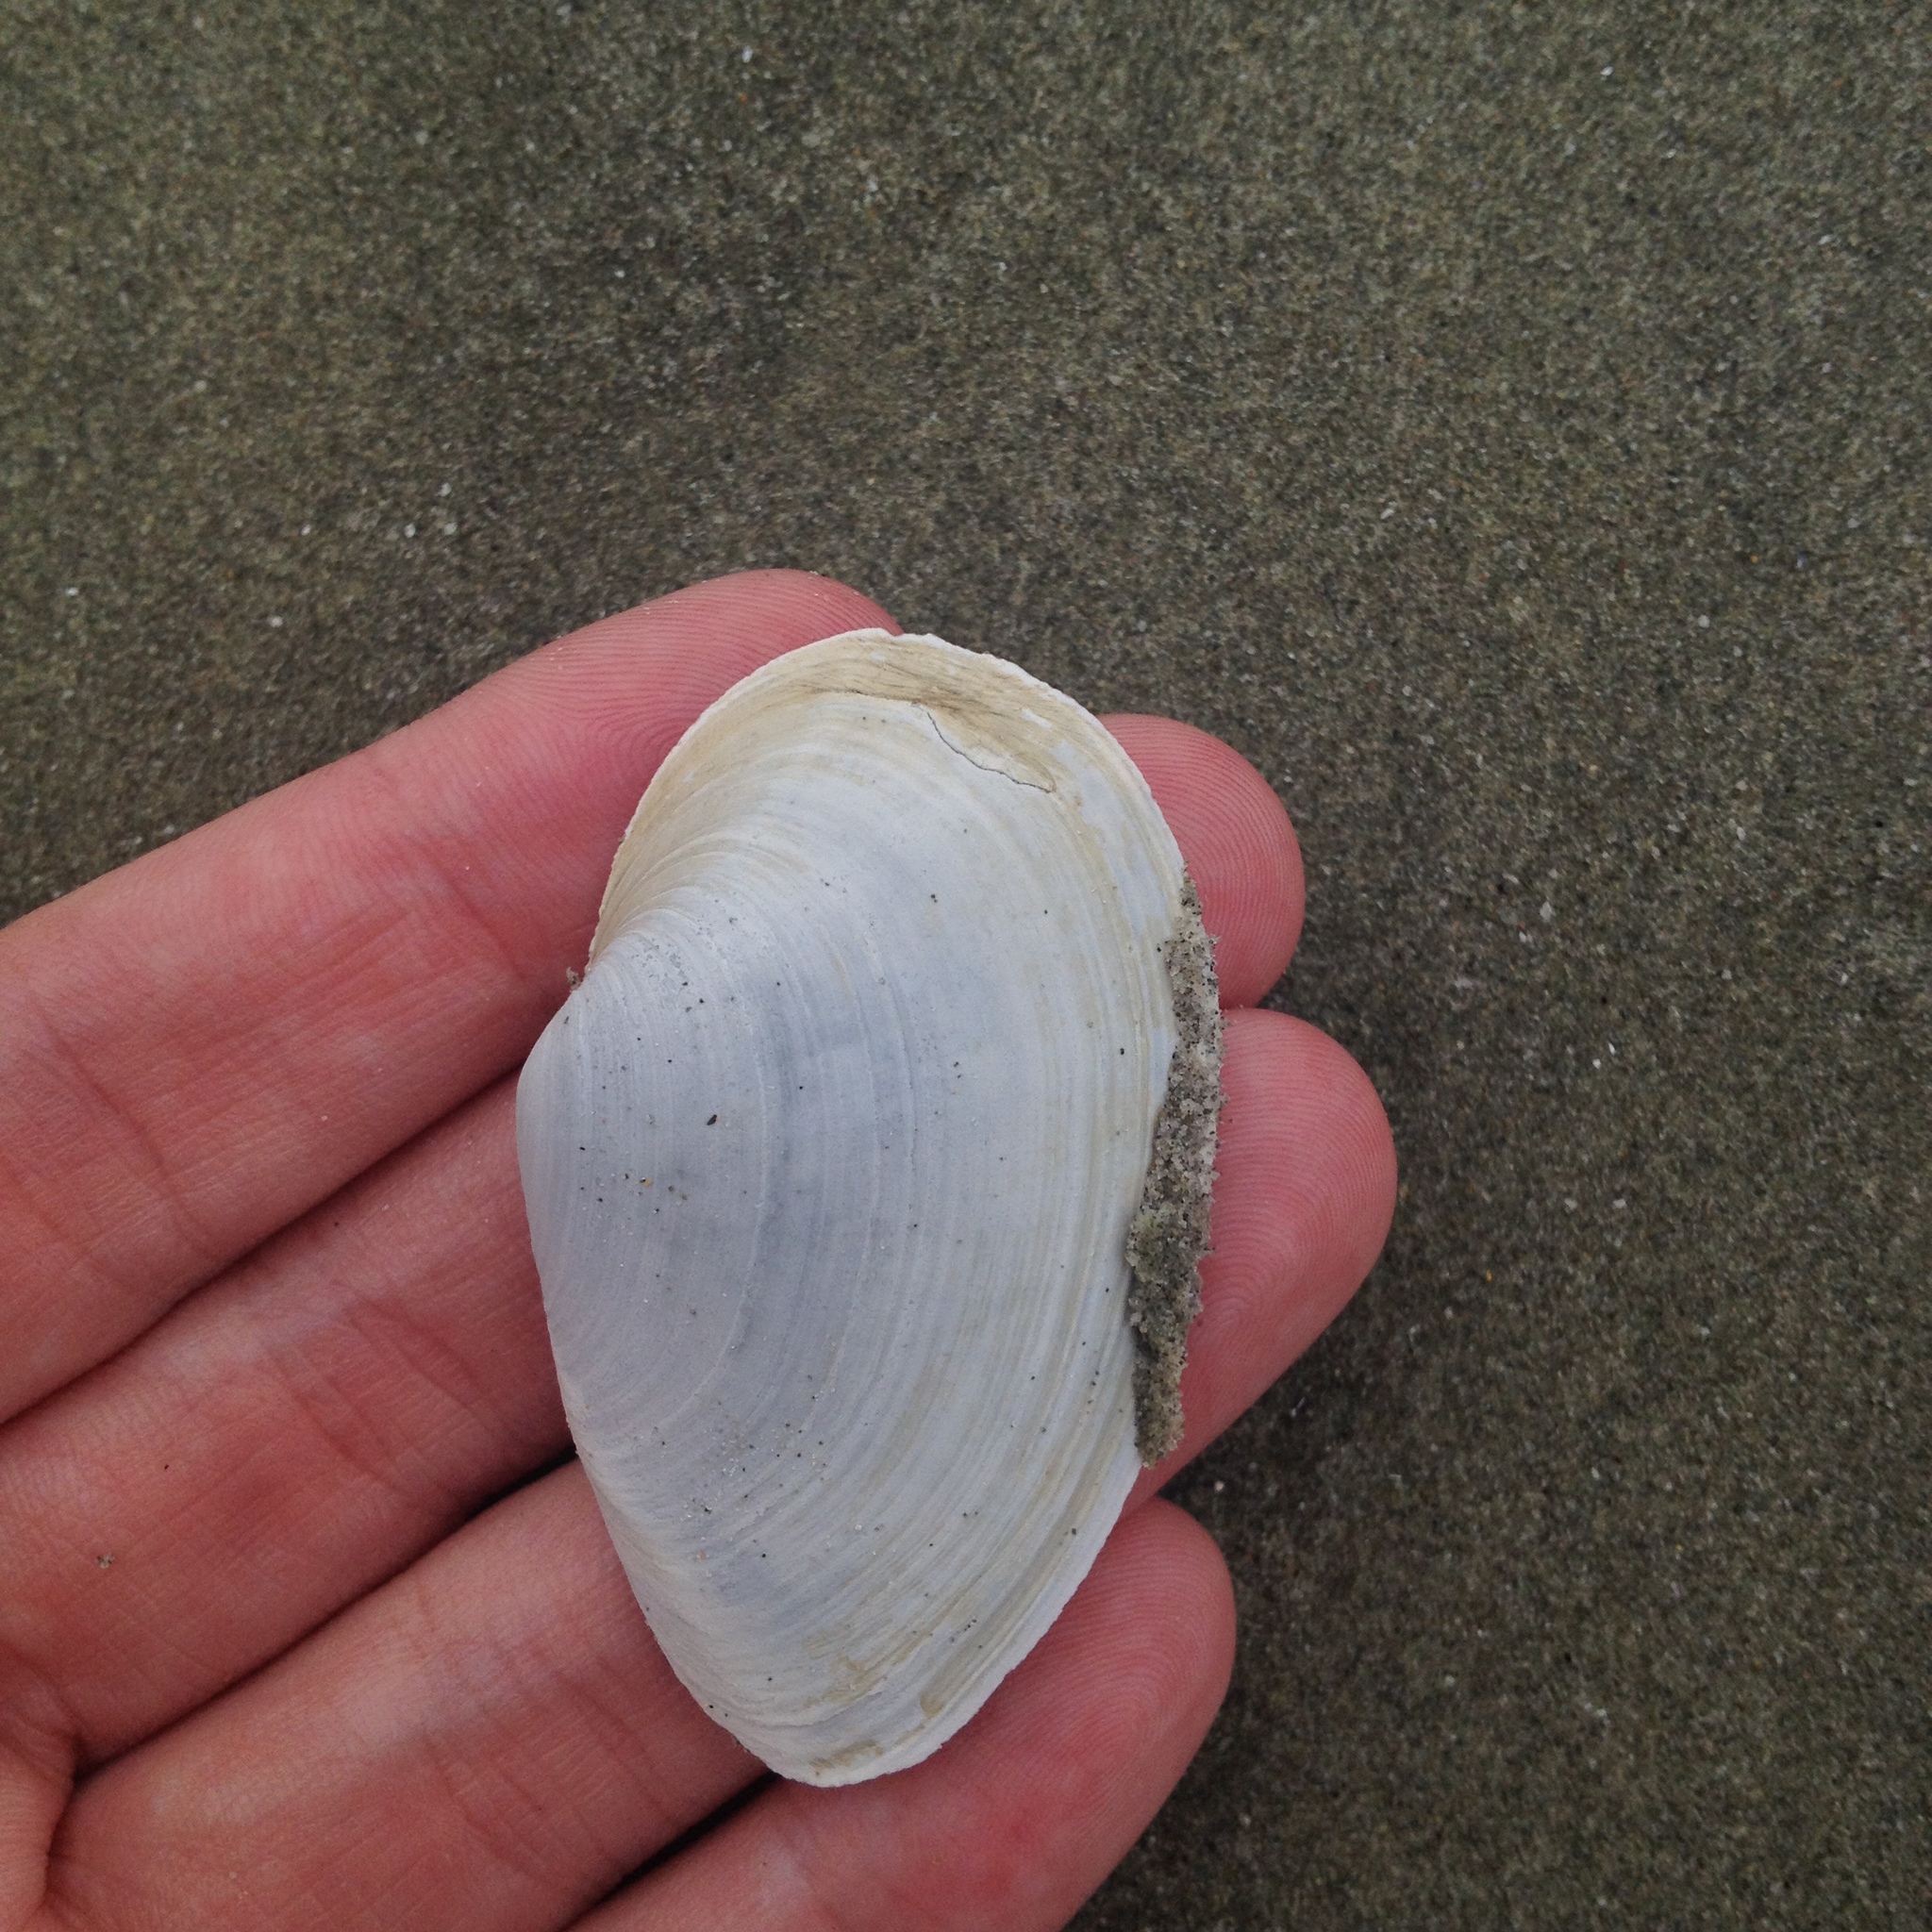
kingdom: Animalia
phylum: Mollusca
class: Bivalvia
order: Myida
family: Myidae
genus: Mya
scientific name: Mya arenaria
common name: Soft-shelled clam
